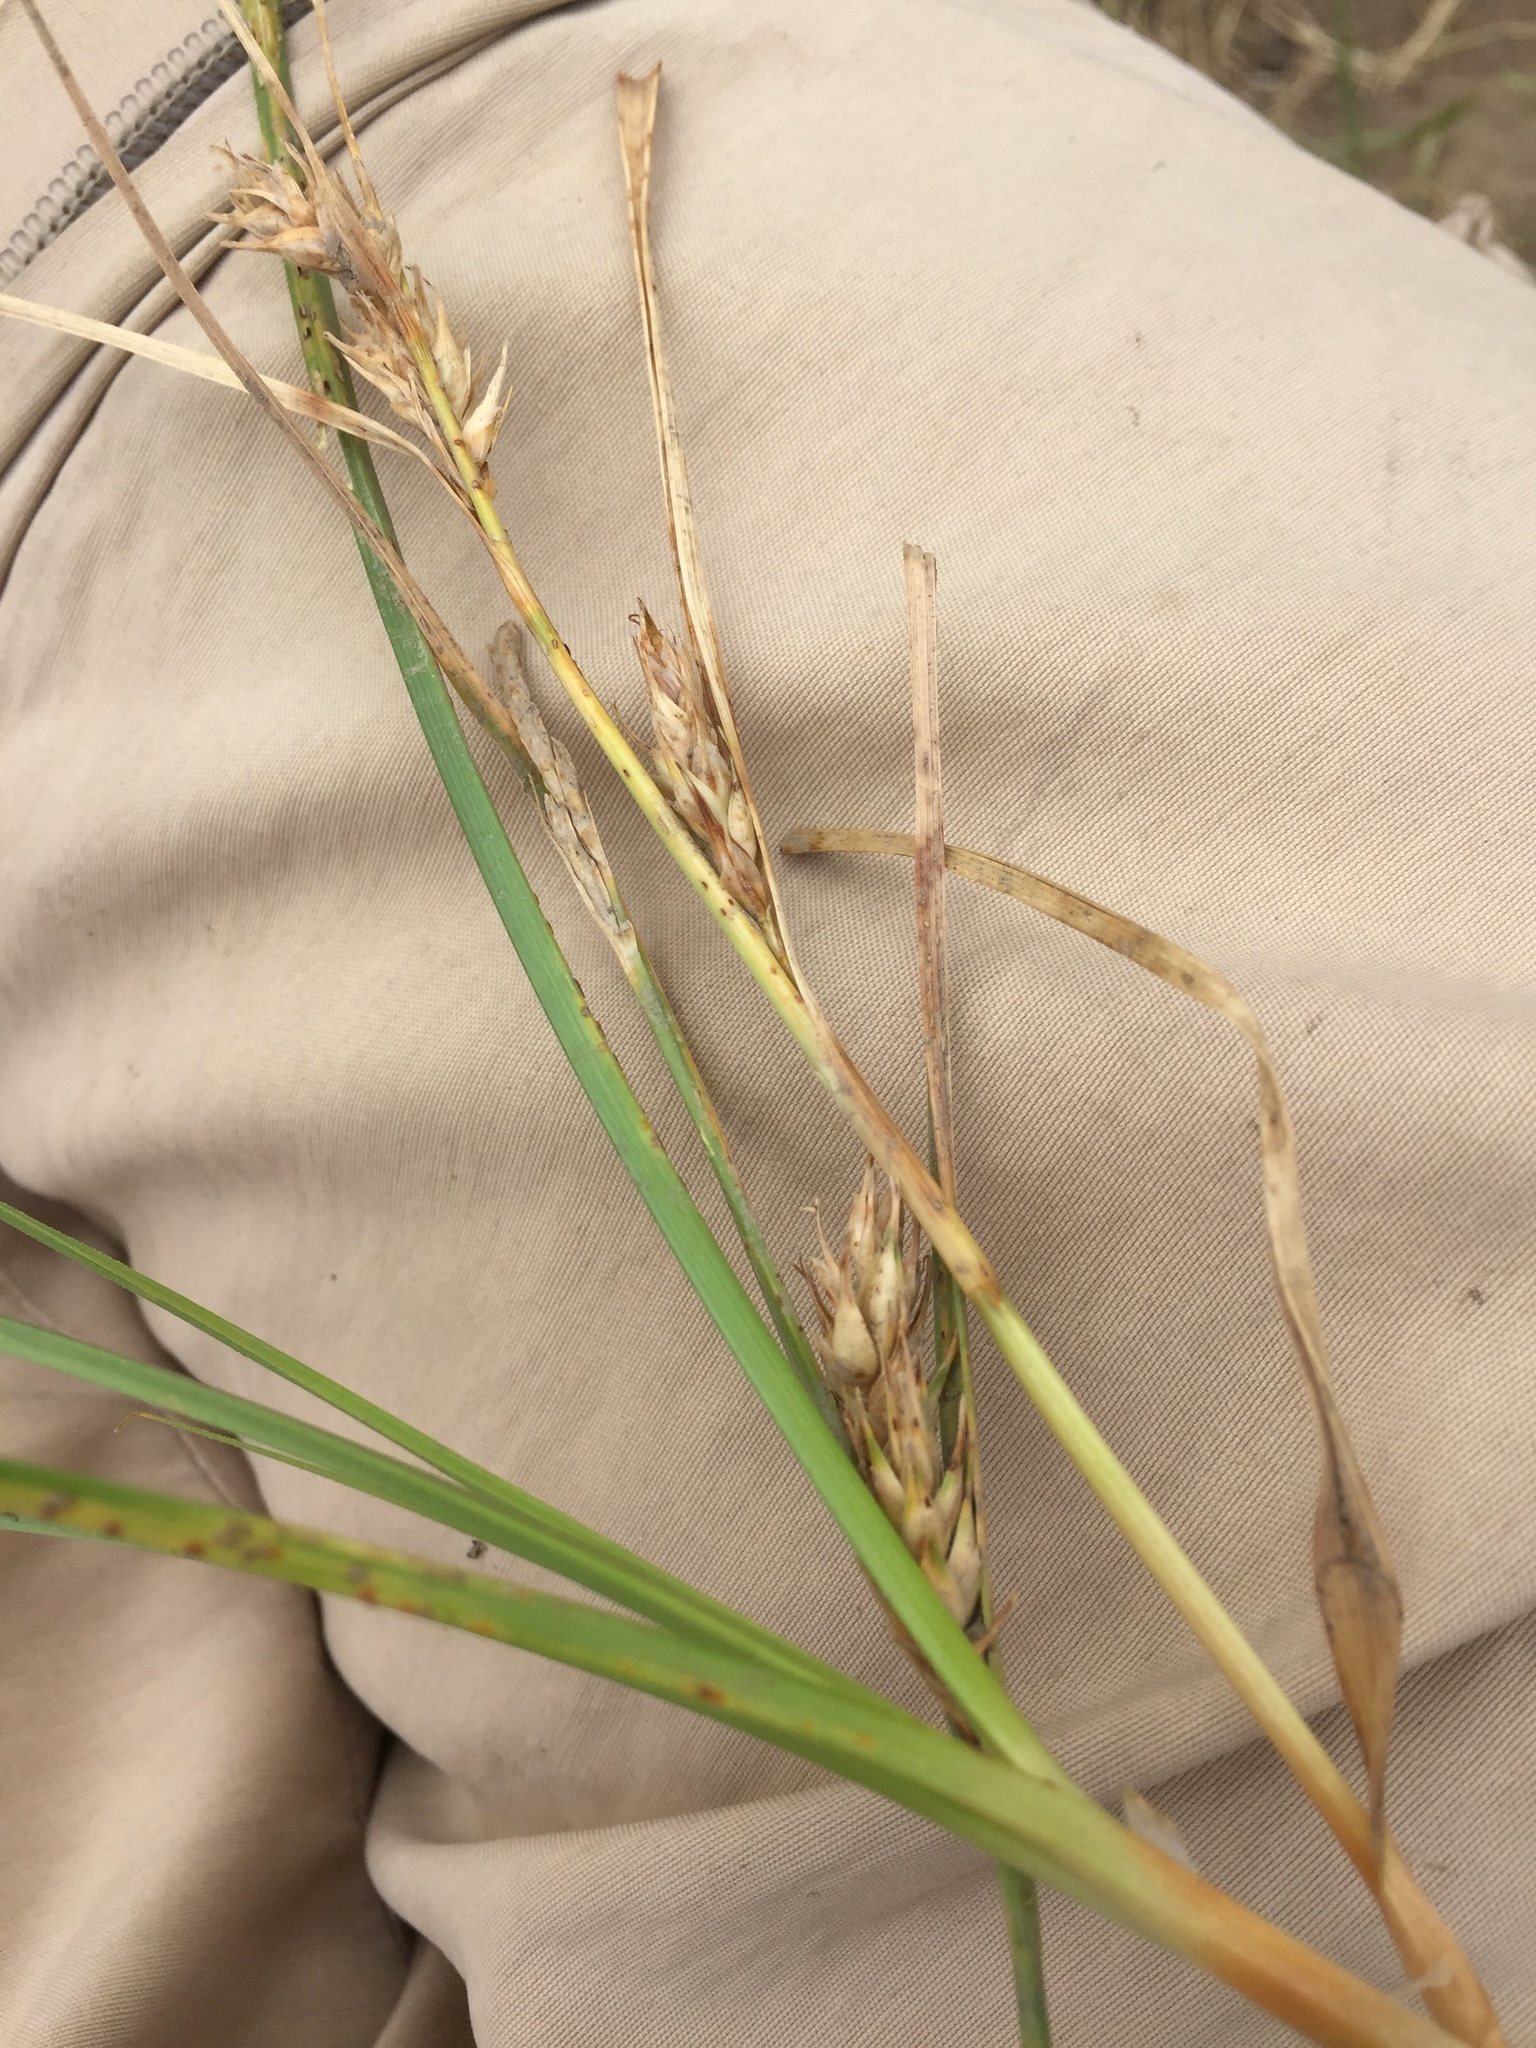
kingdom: Plantae
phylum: Tracheophyta
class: Liliopsida
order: Poales
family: Cyperaceae
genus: Carex
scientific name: Carex hordeistichos
